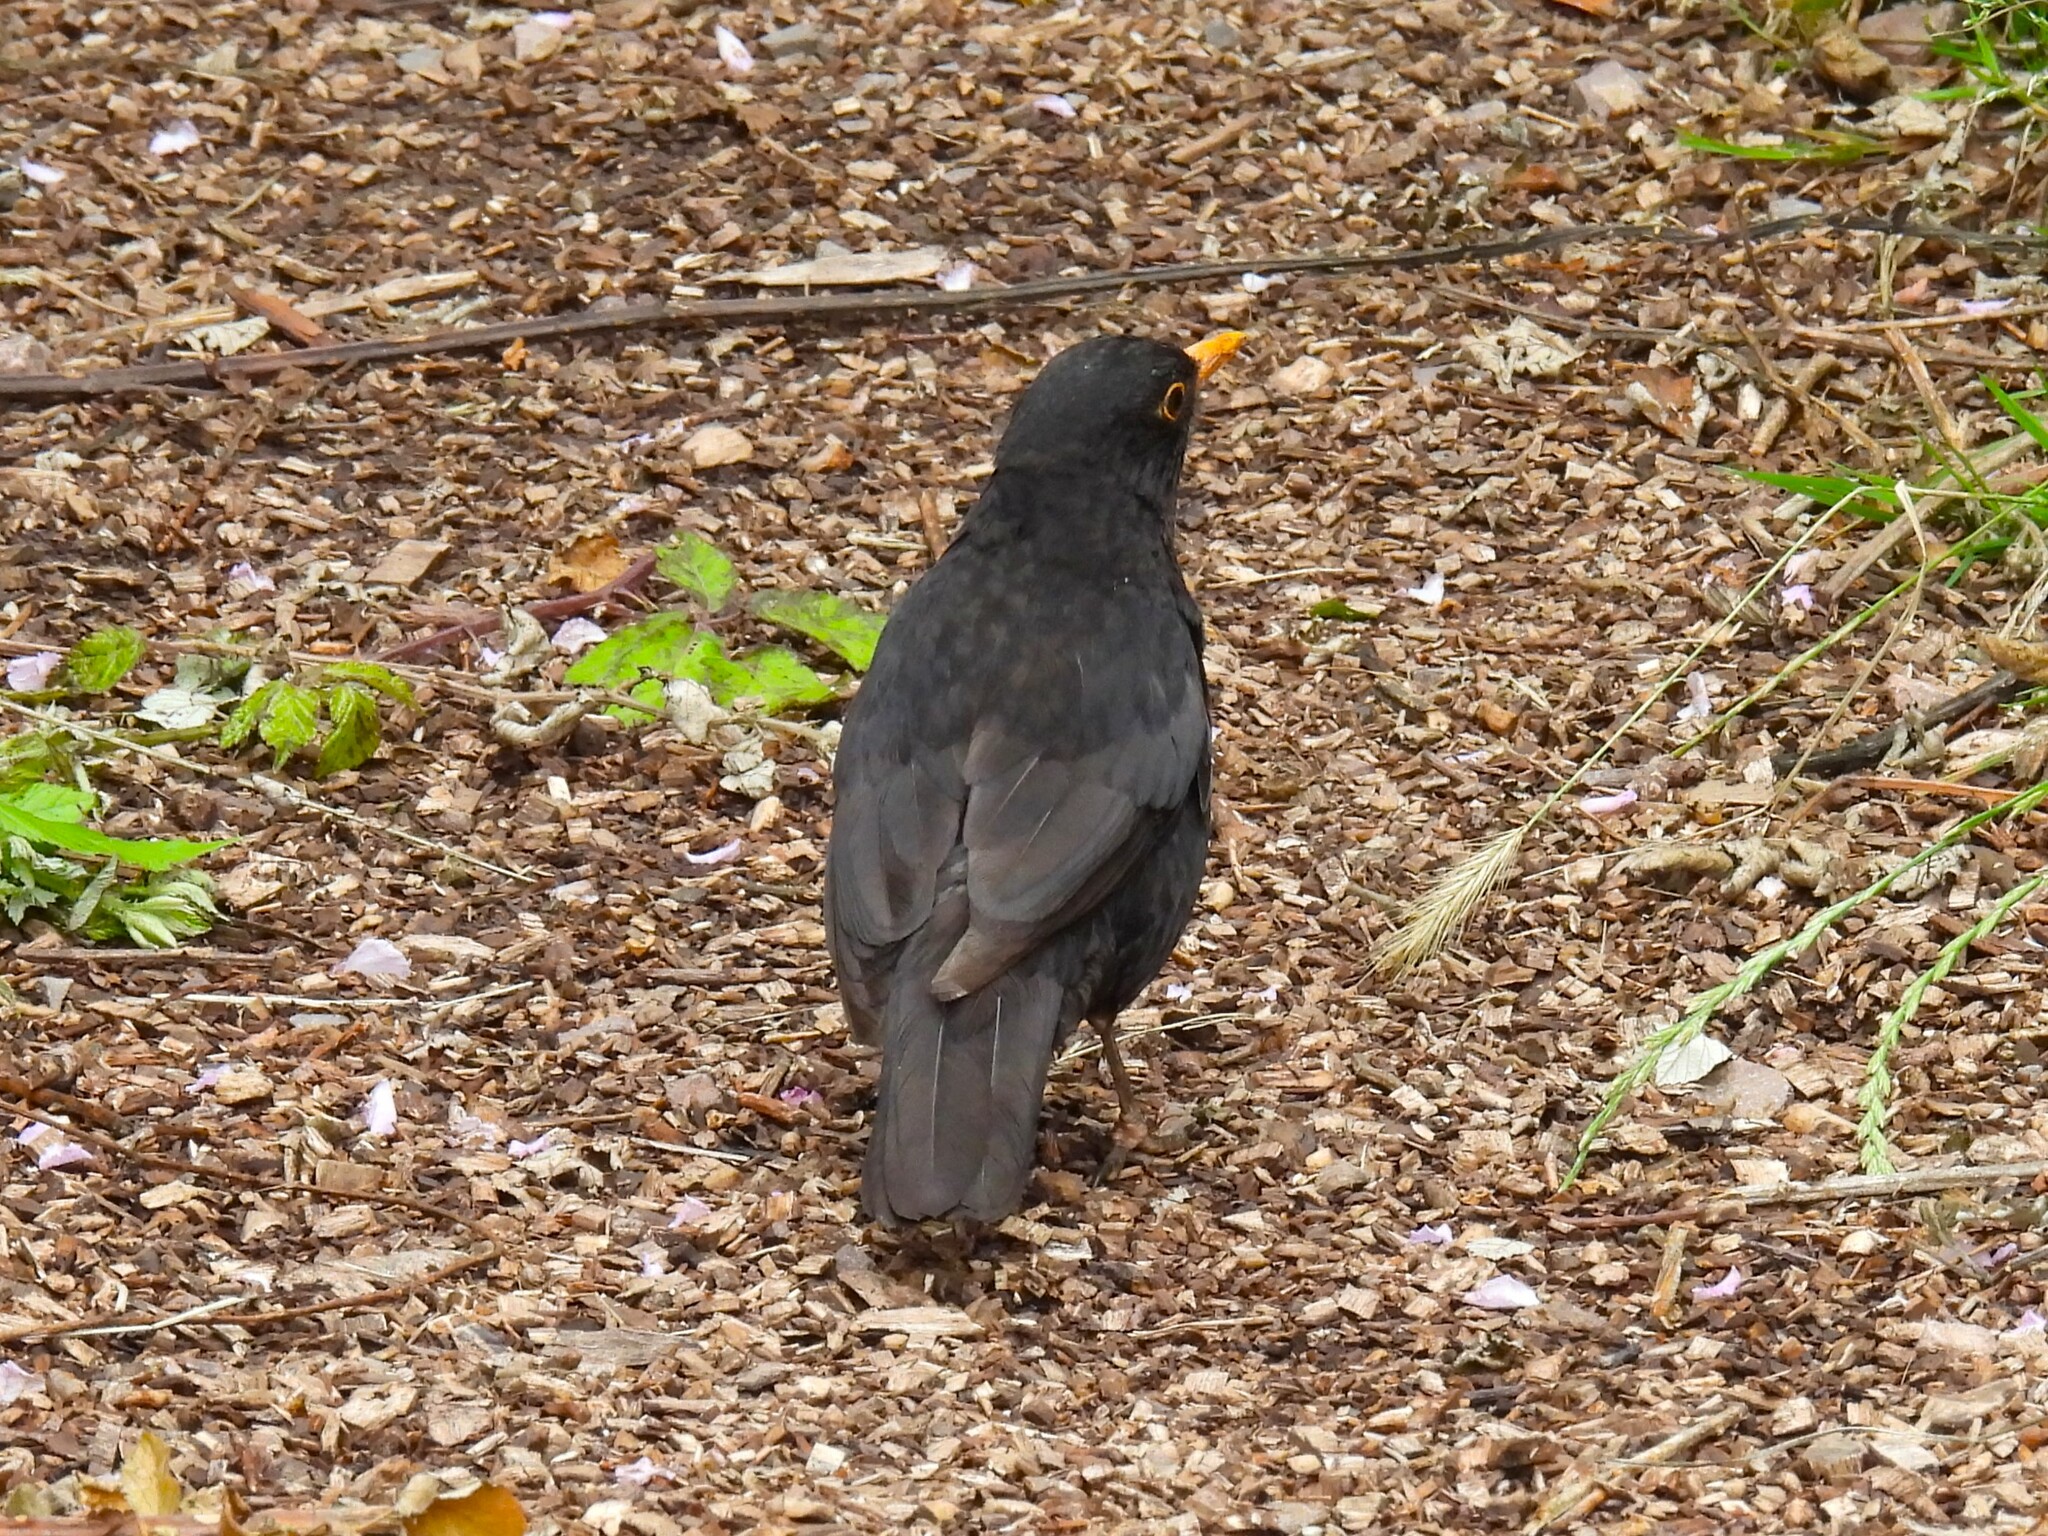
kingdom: Animalia
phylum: Chordata
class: Aves
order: Passeriformes
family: Turdidae
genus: Turdus
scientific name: Turdus merula
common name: Common blackbird
